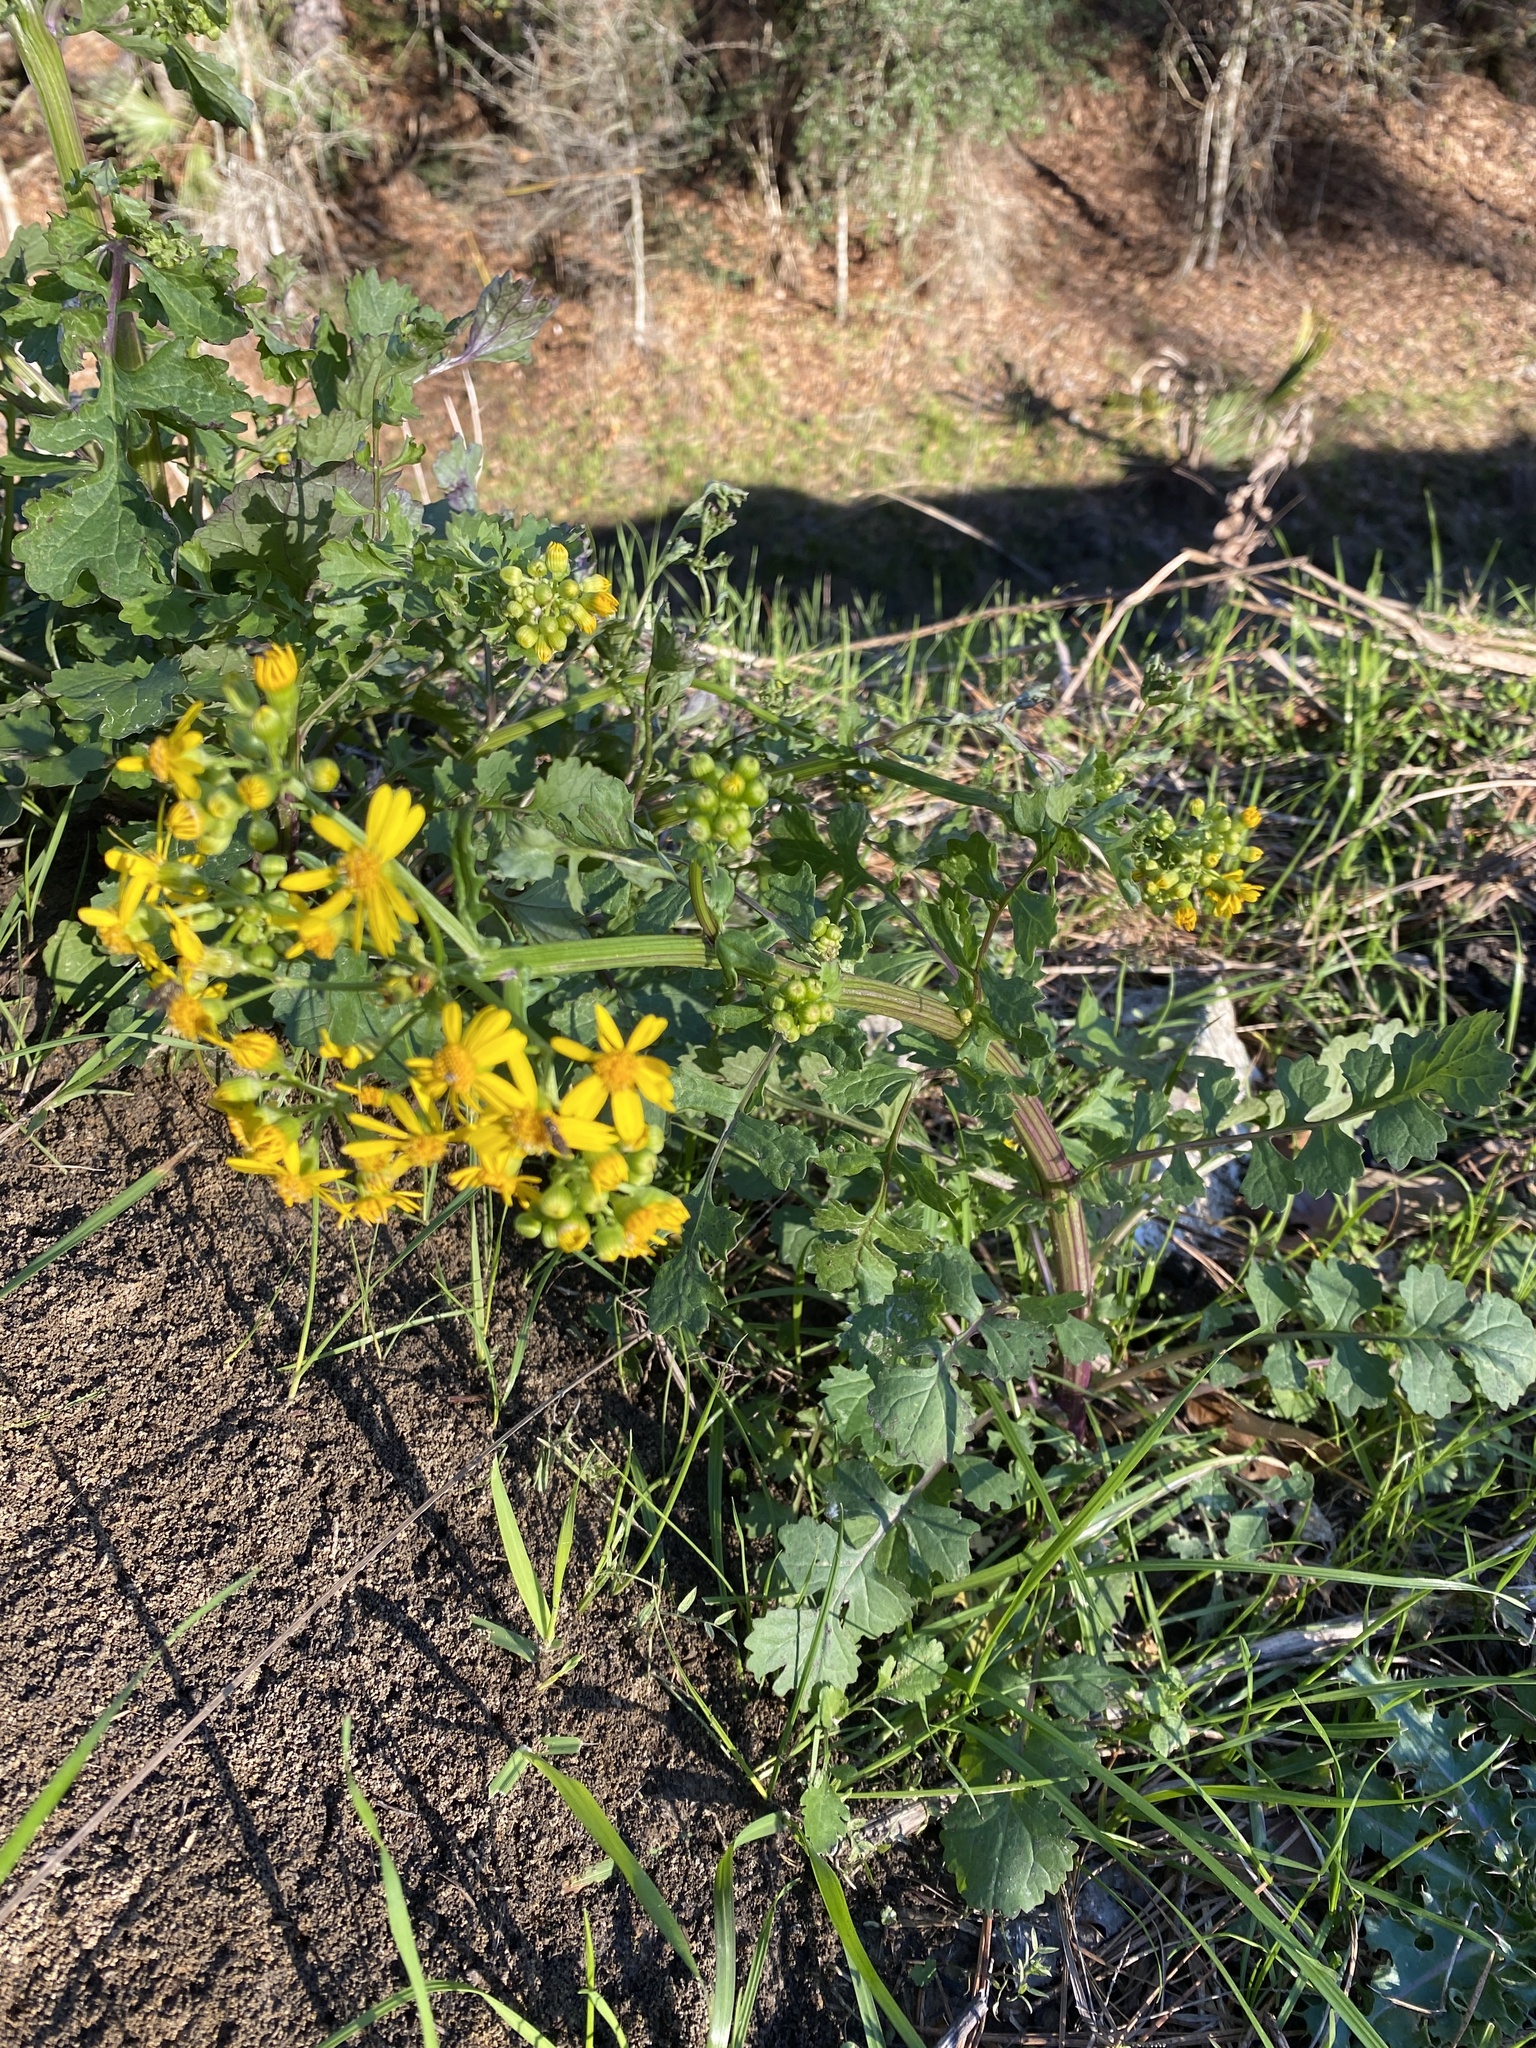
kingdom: Plantae
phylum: Tracheophyta
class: Magnoliopsida
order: Asterales
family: Asteraceae
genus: Packera
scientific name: Packera glabella
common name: Butterweed
